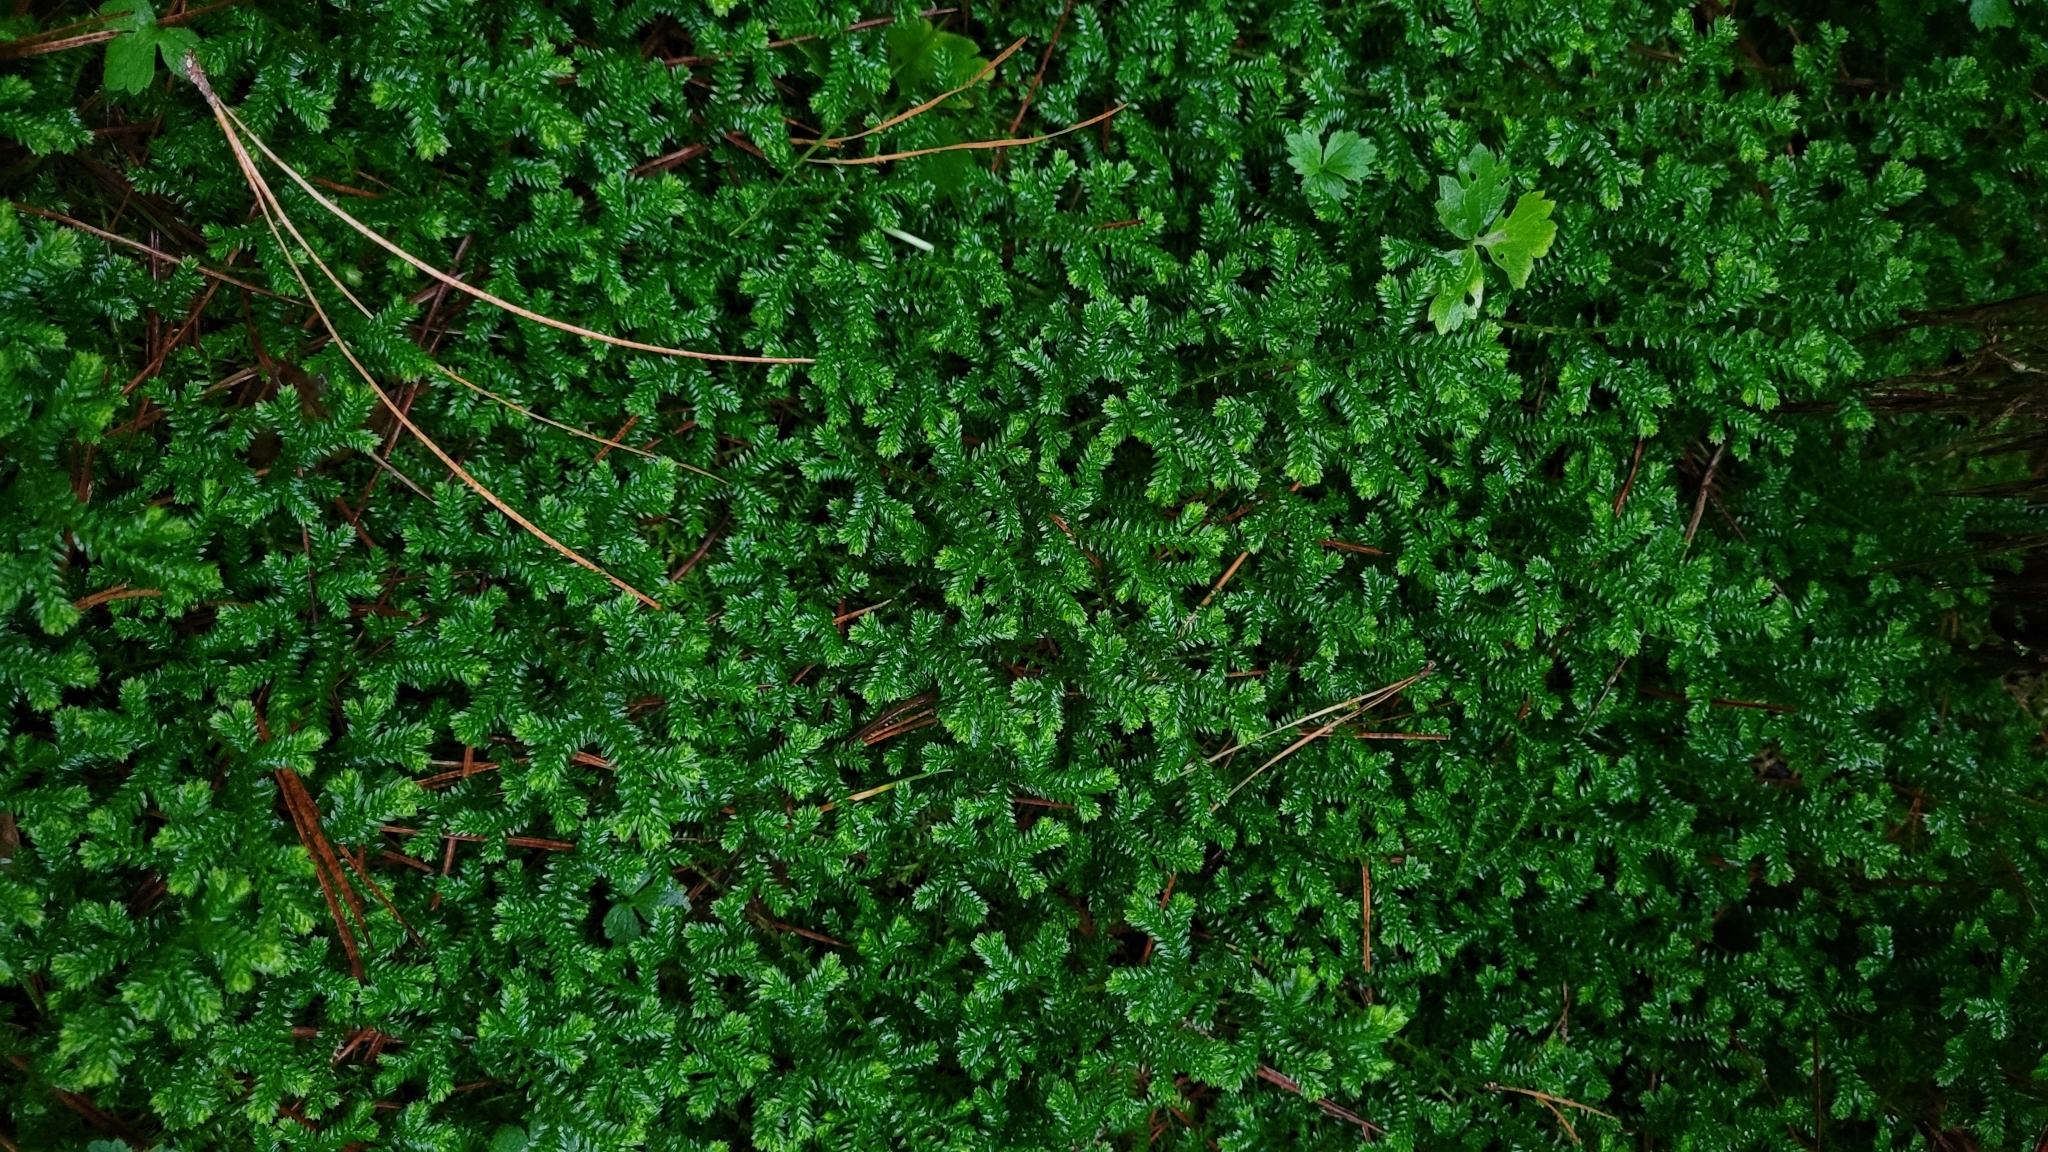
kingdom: Plantae
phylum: Tracheophyta
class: Lycopodiopsida
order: Selaginellales
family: Selaginellaceae
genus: Selaginella
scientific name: Selaginella kraussiana
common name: Krauss' spikemoss
